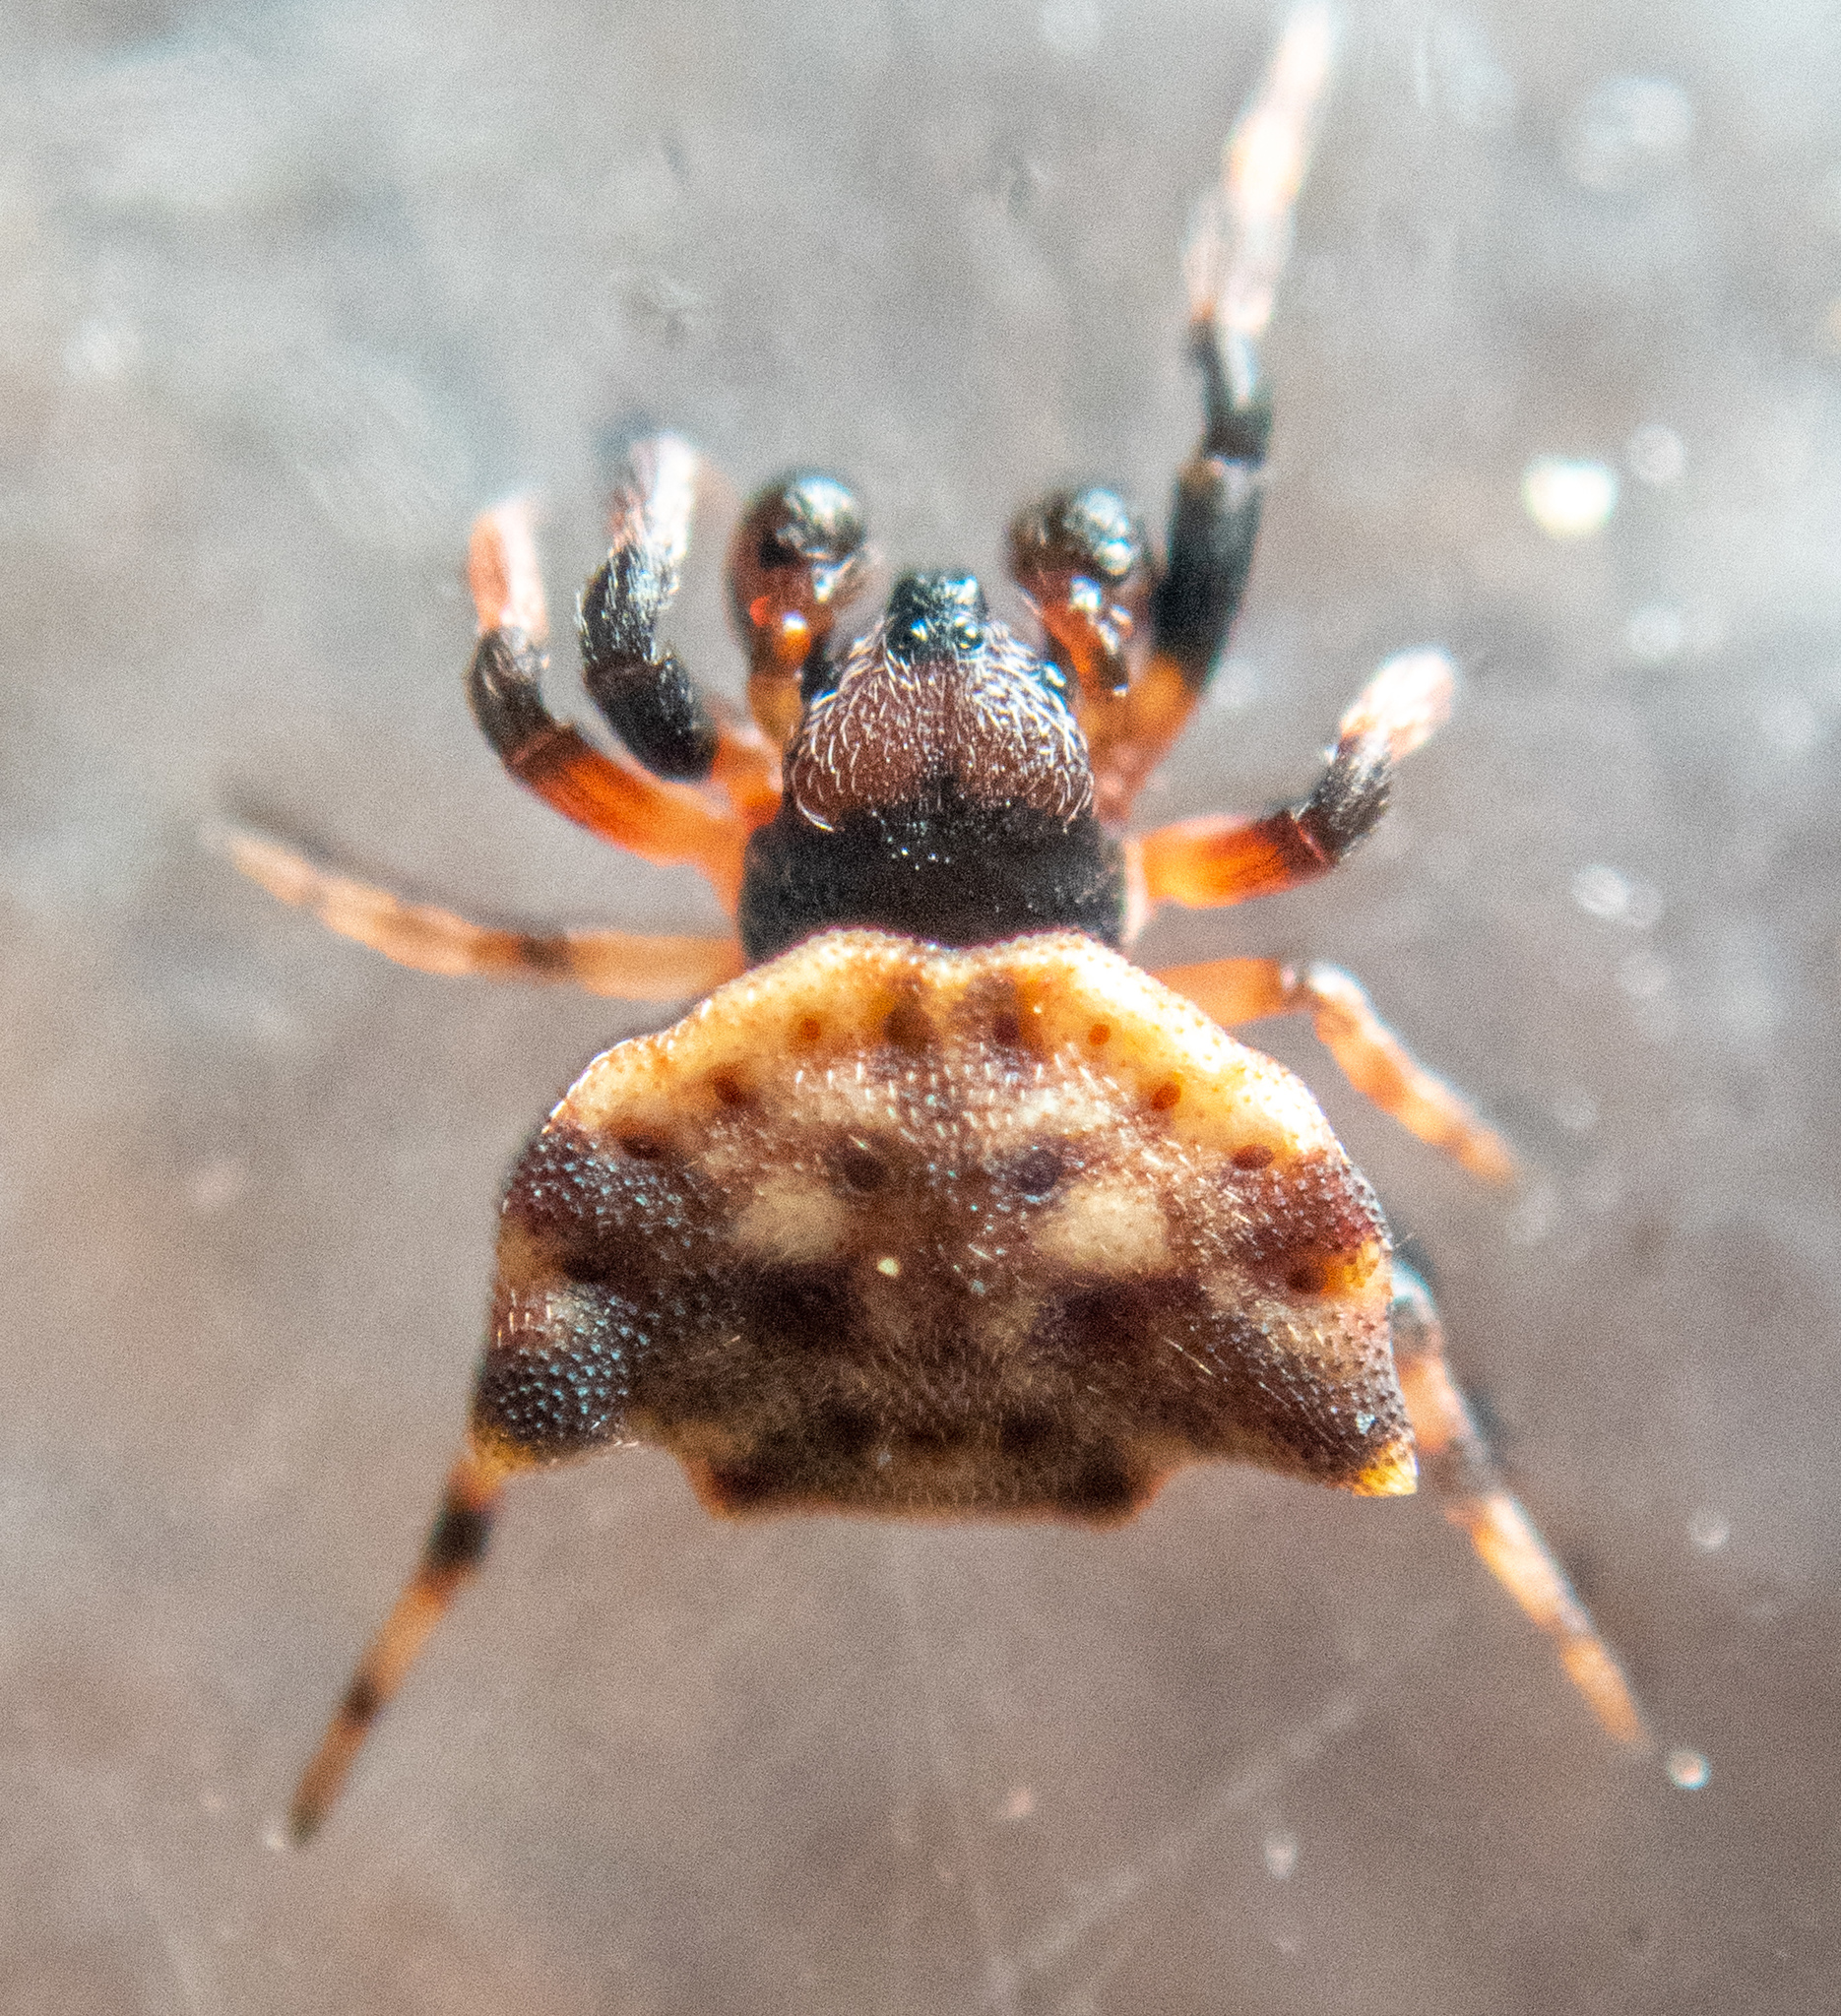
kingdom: Animalia
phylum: Arthropoda
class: Arachnida
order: Araneae
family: Araneidae
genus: Thelacantha
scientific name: Thelacantha brevispina
